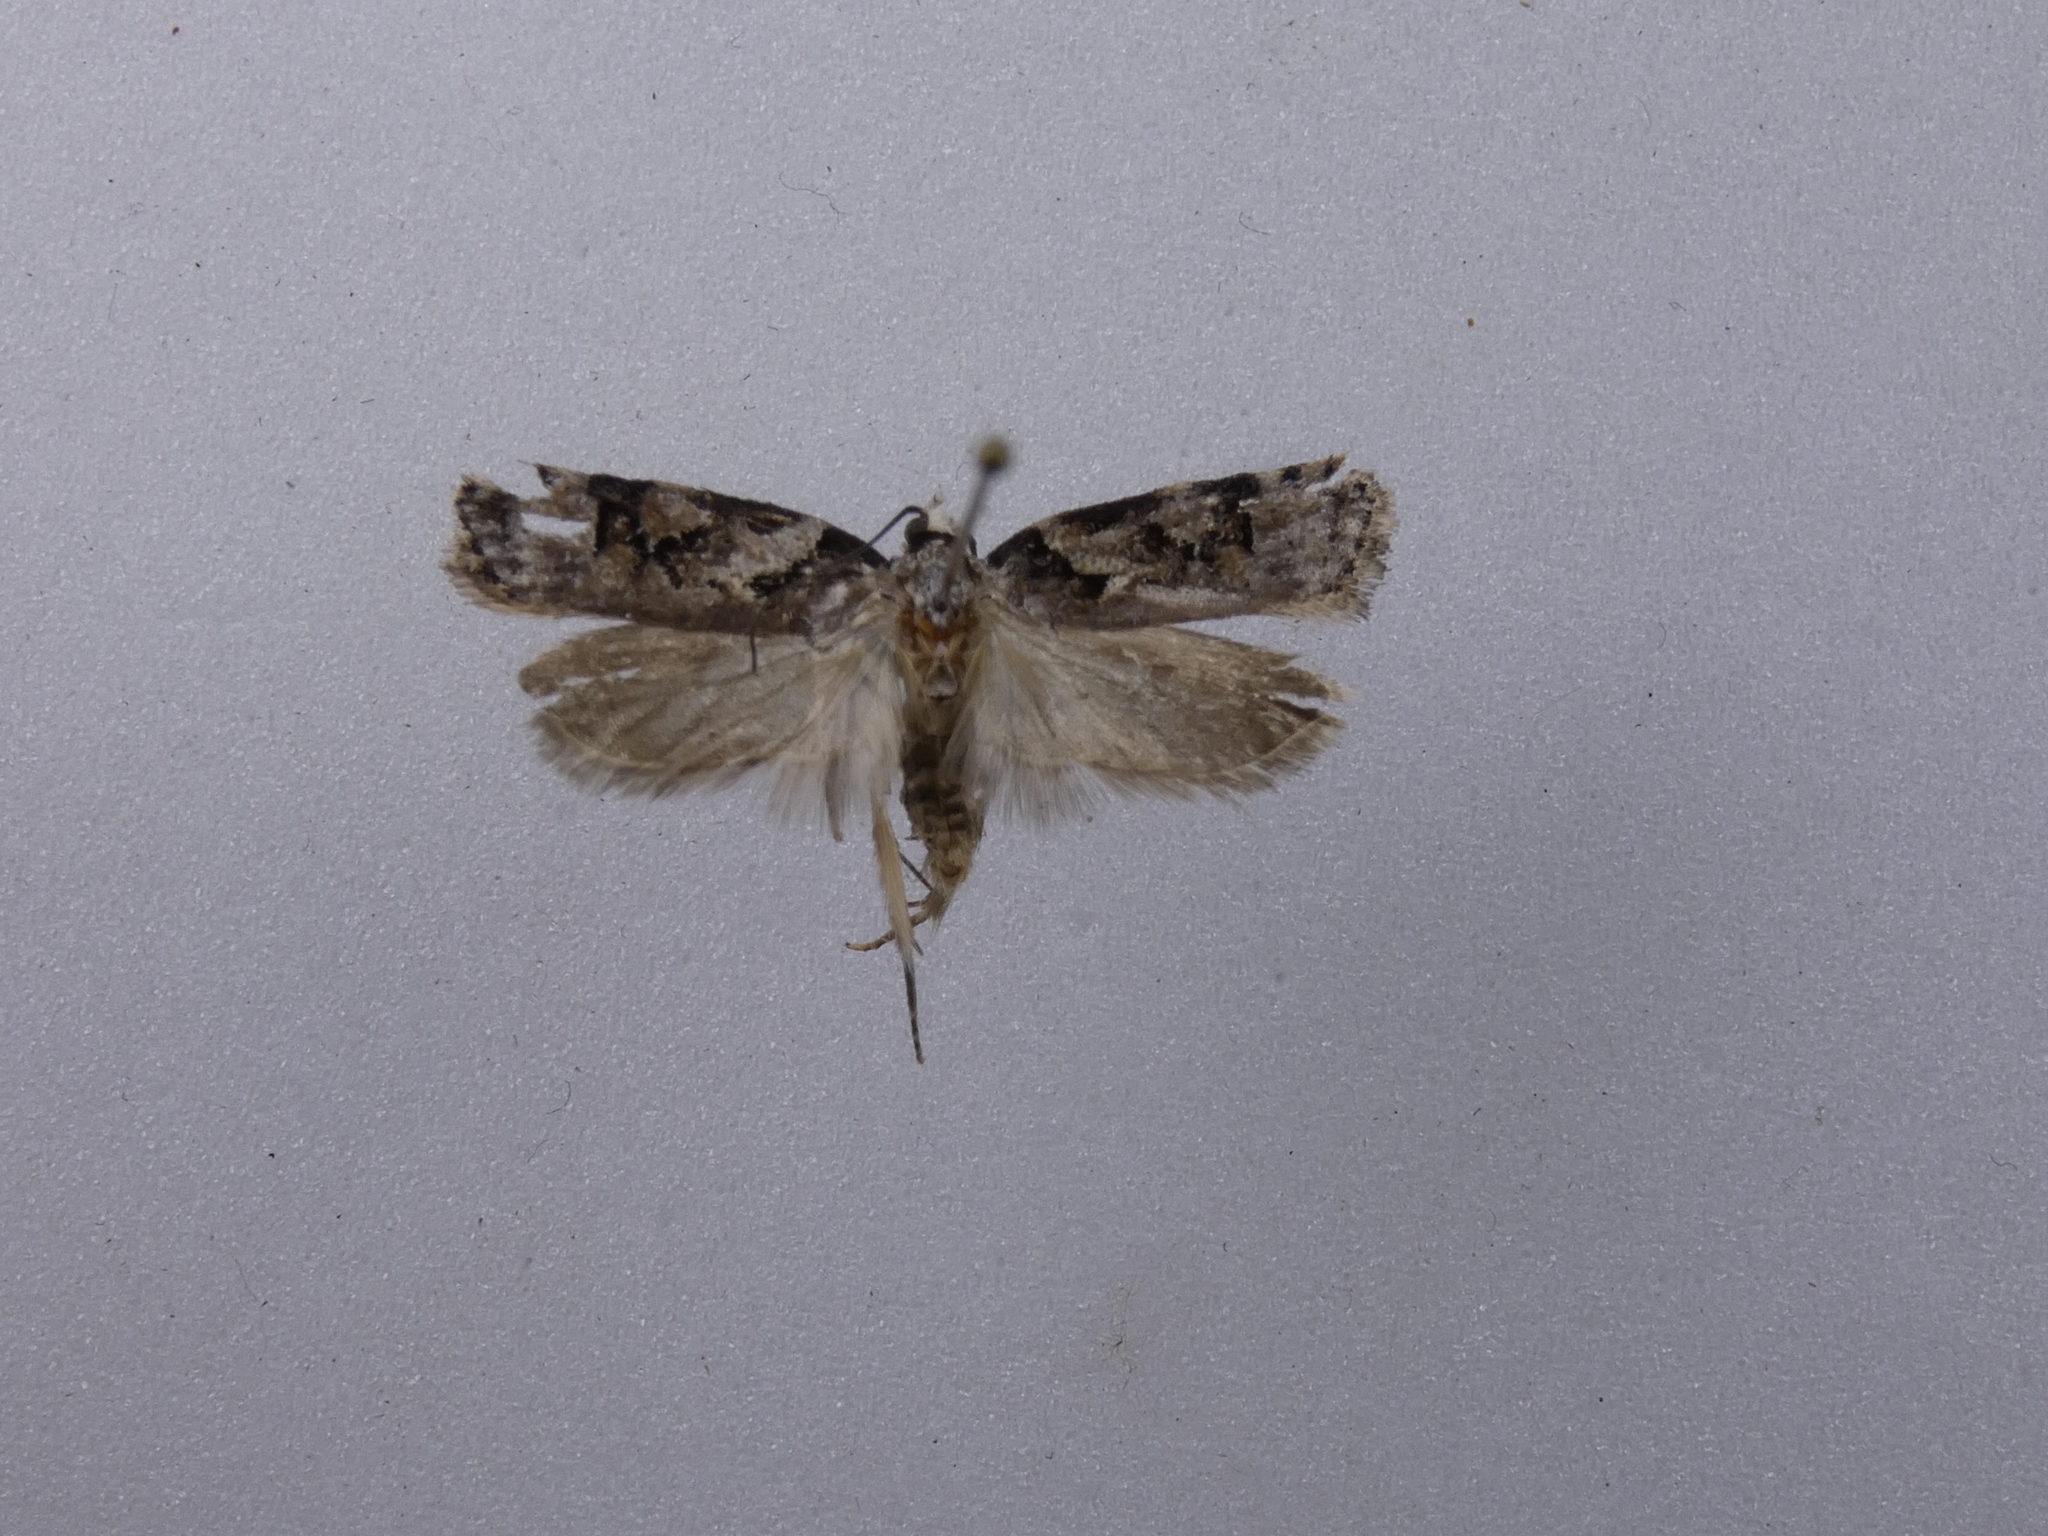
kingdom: Animalia
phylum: Arthropoda
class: Insecta
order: Lepidoptera
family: Oecophoridae
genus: Izatha
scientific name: Izatha epiphanes
